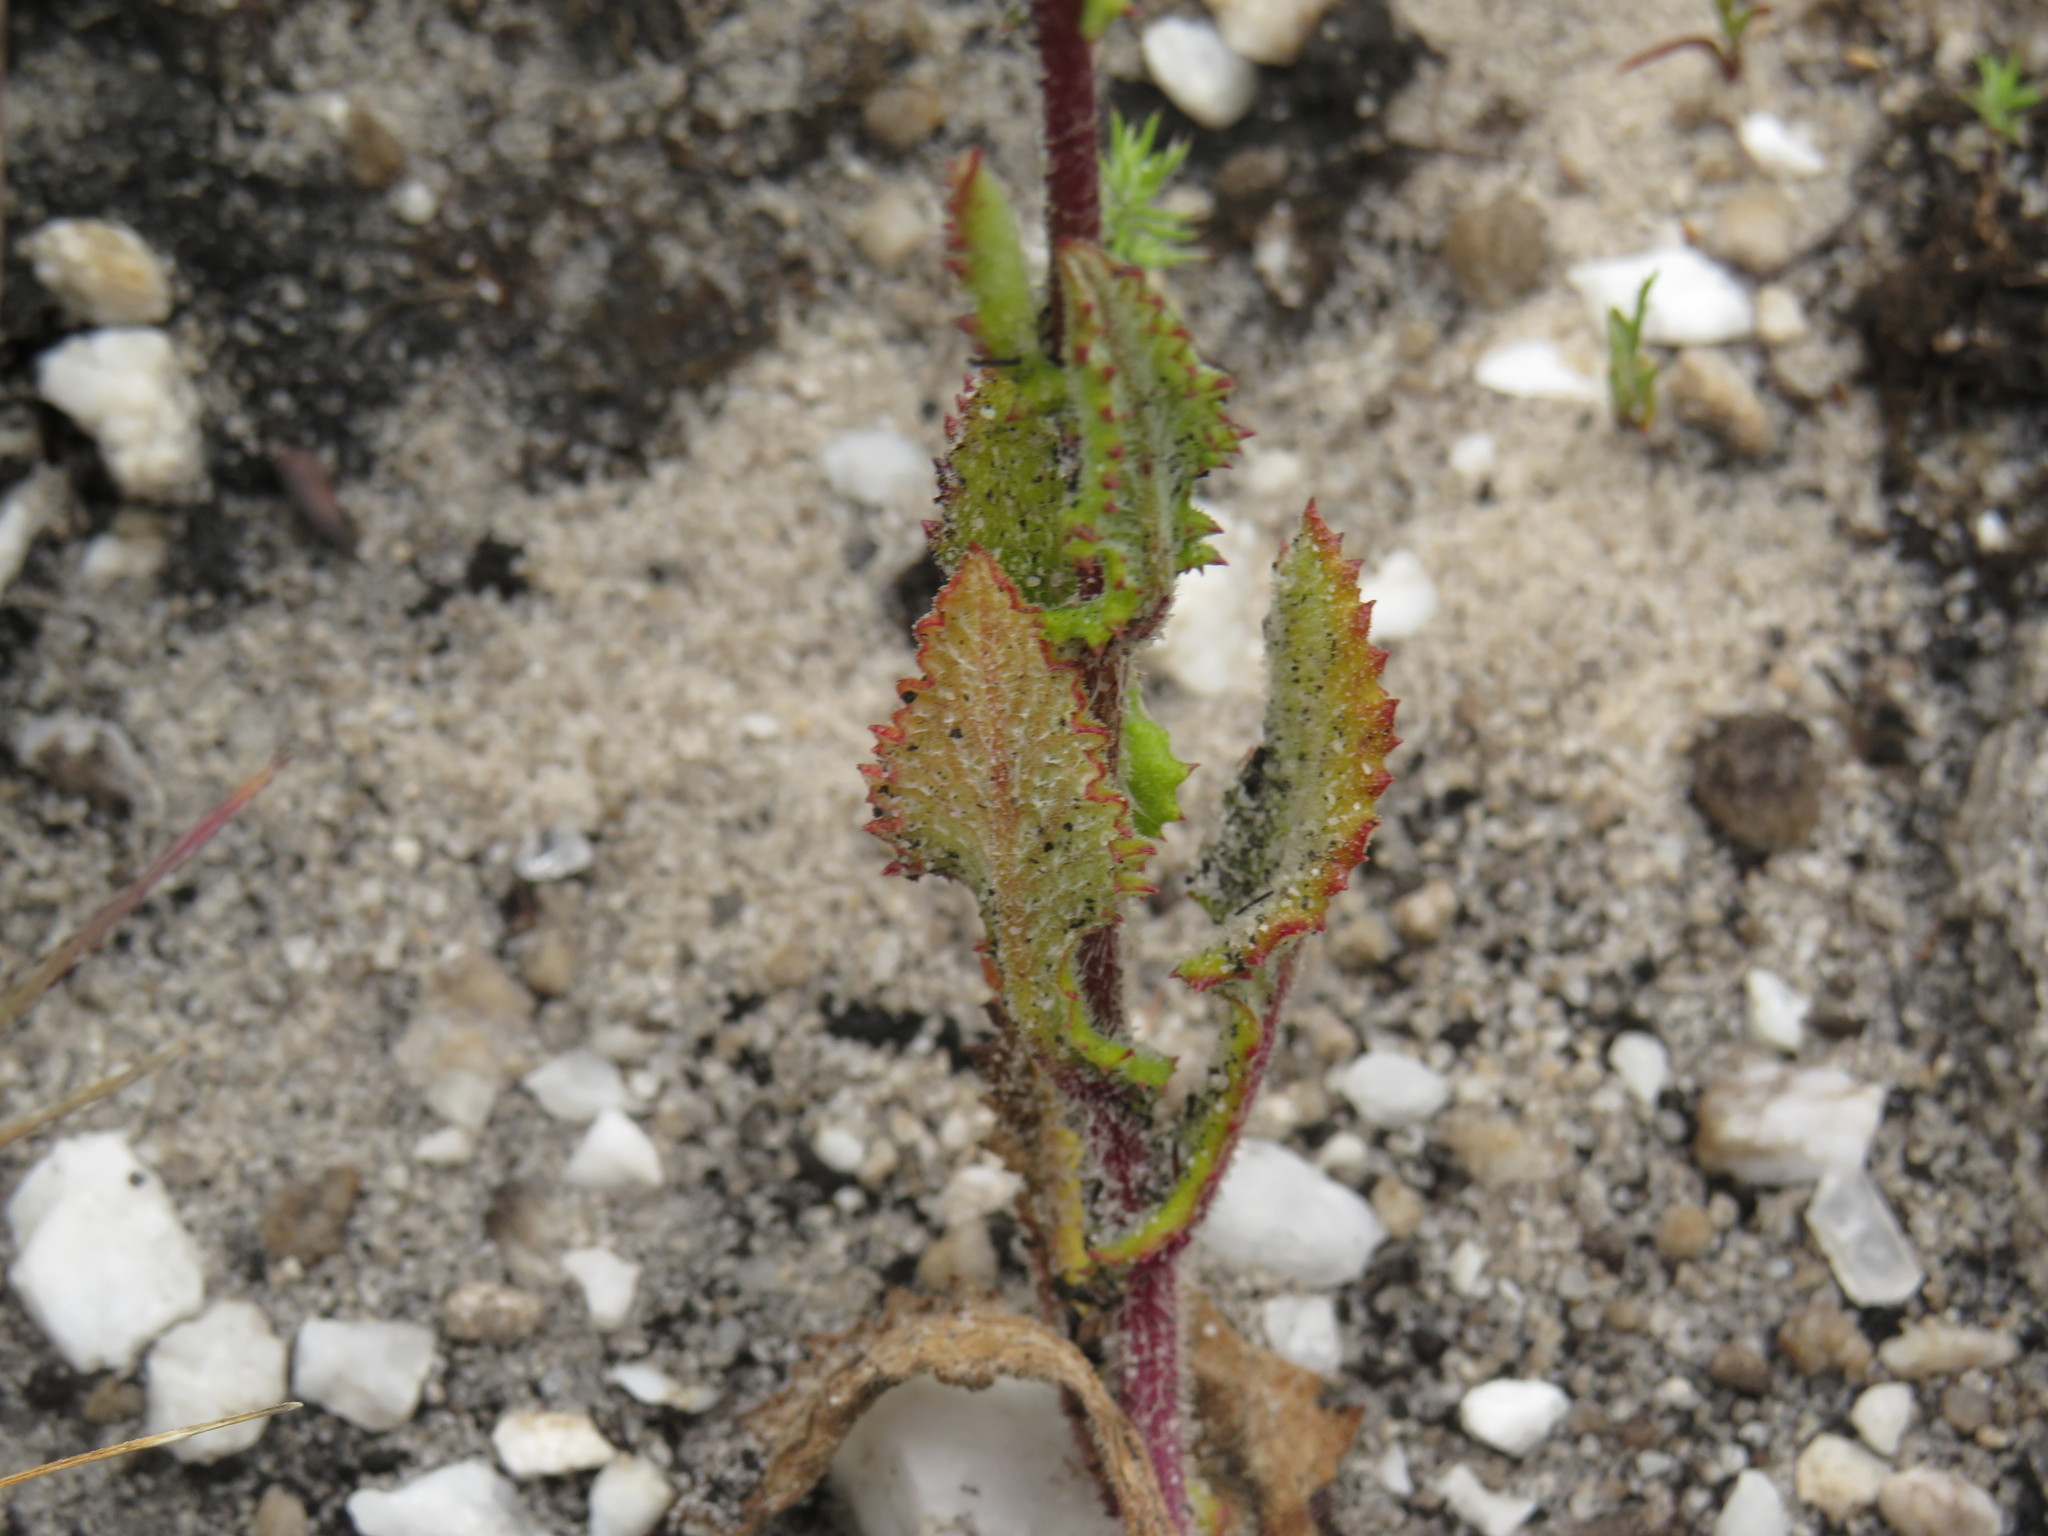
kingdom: Plantae
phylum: Tracheophyta
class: Magnoliopsida
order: Asterales
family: Asteraceae
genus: Senecio
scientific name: Senecio subcanescens
